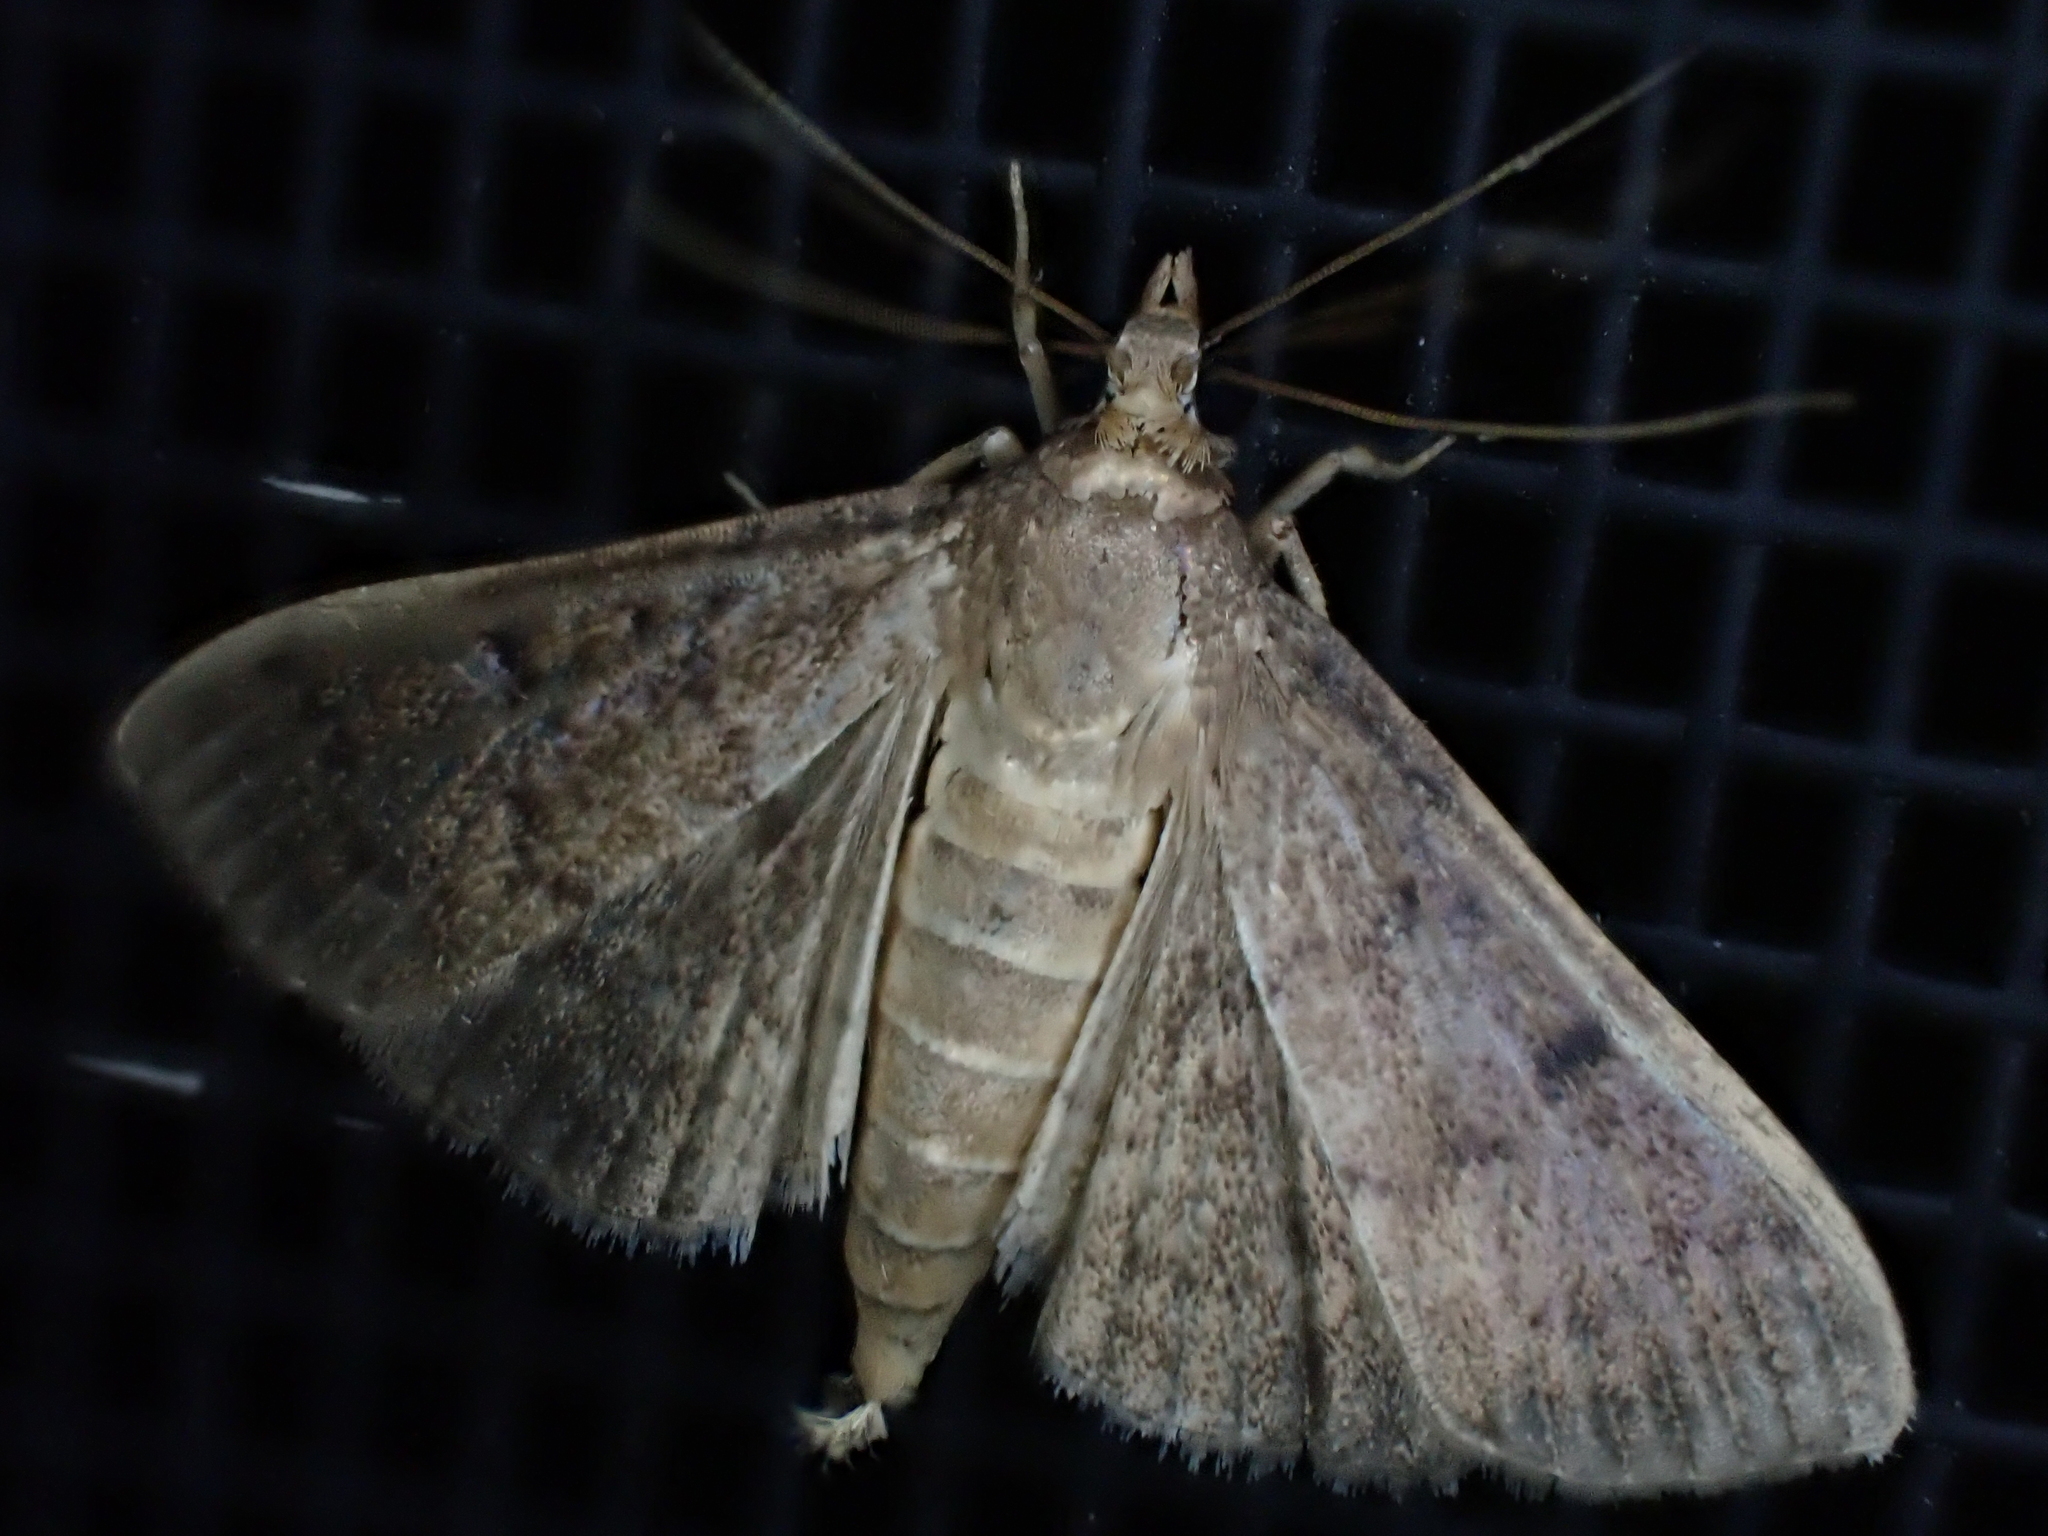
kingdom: Animalia
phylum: Arthropoda
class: Insecta
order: Lepidoptera
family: Crambidae
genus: Herpetogramma
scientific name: Herpetogramma phaeopteralis
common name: Dusky herpetogramma moth
